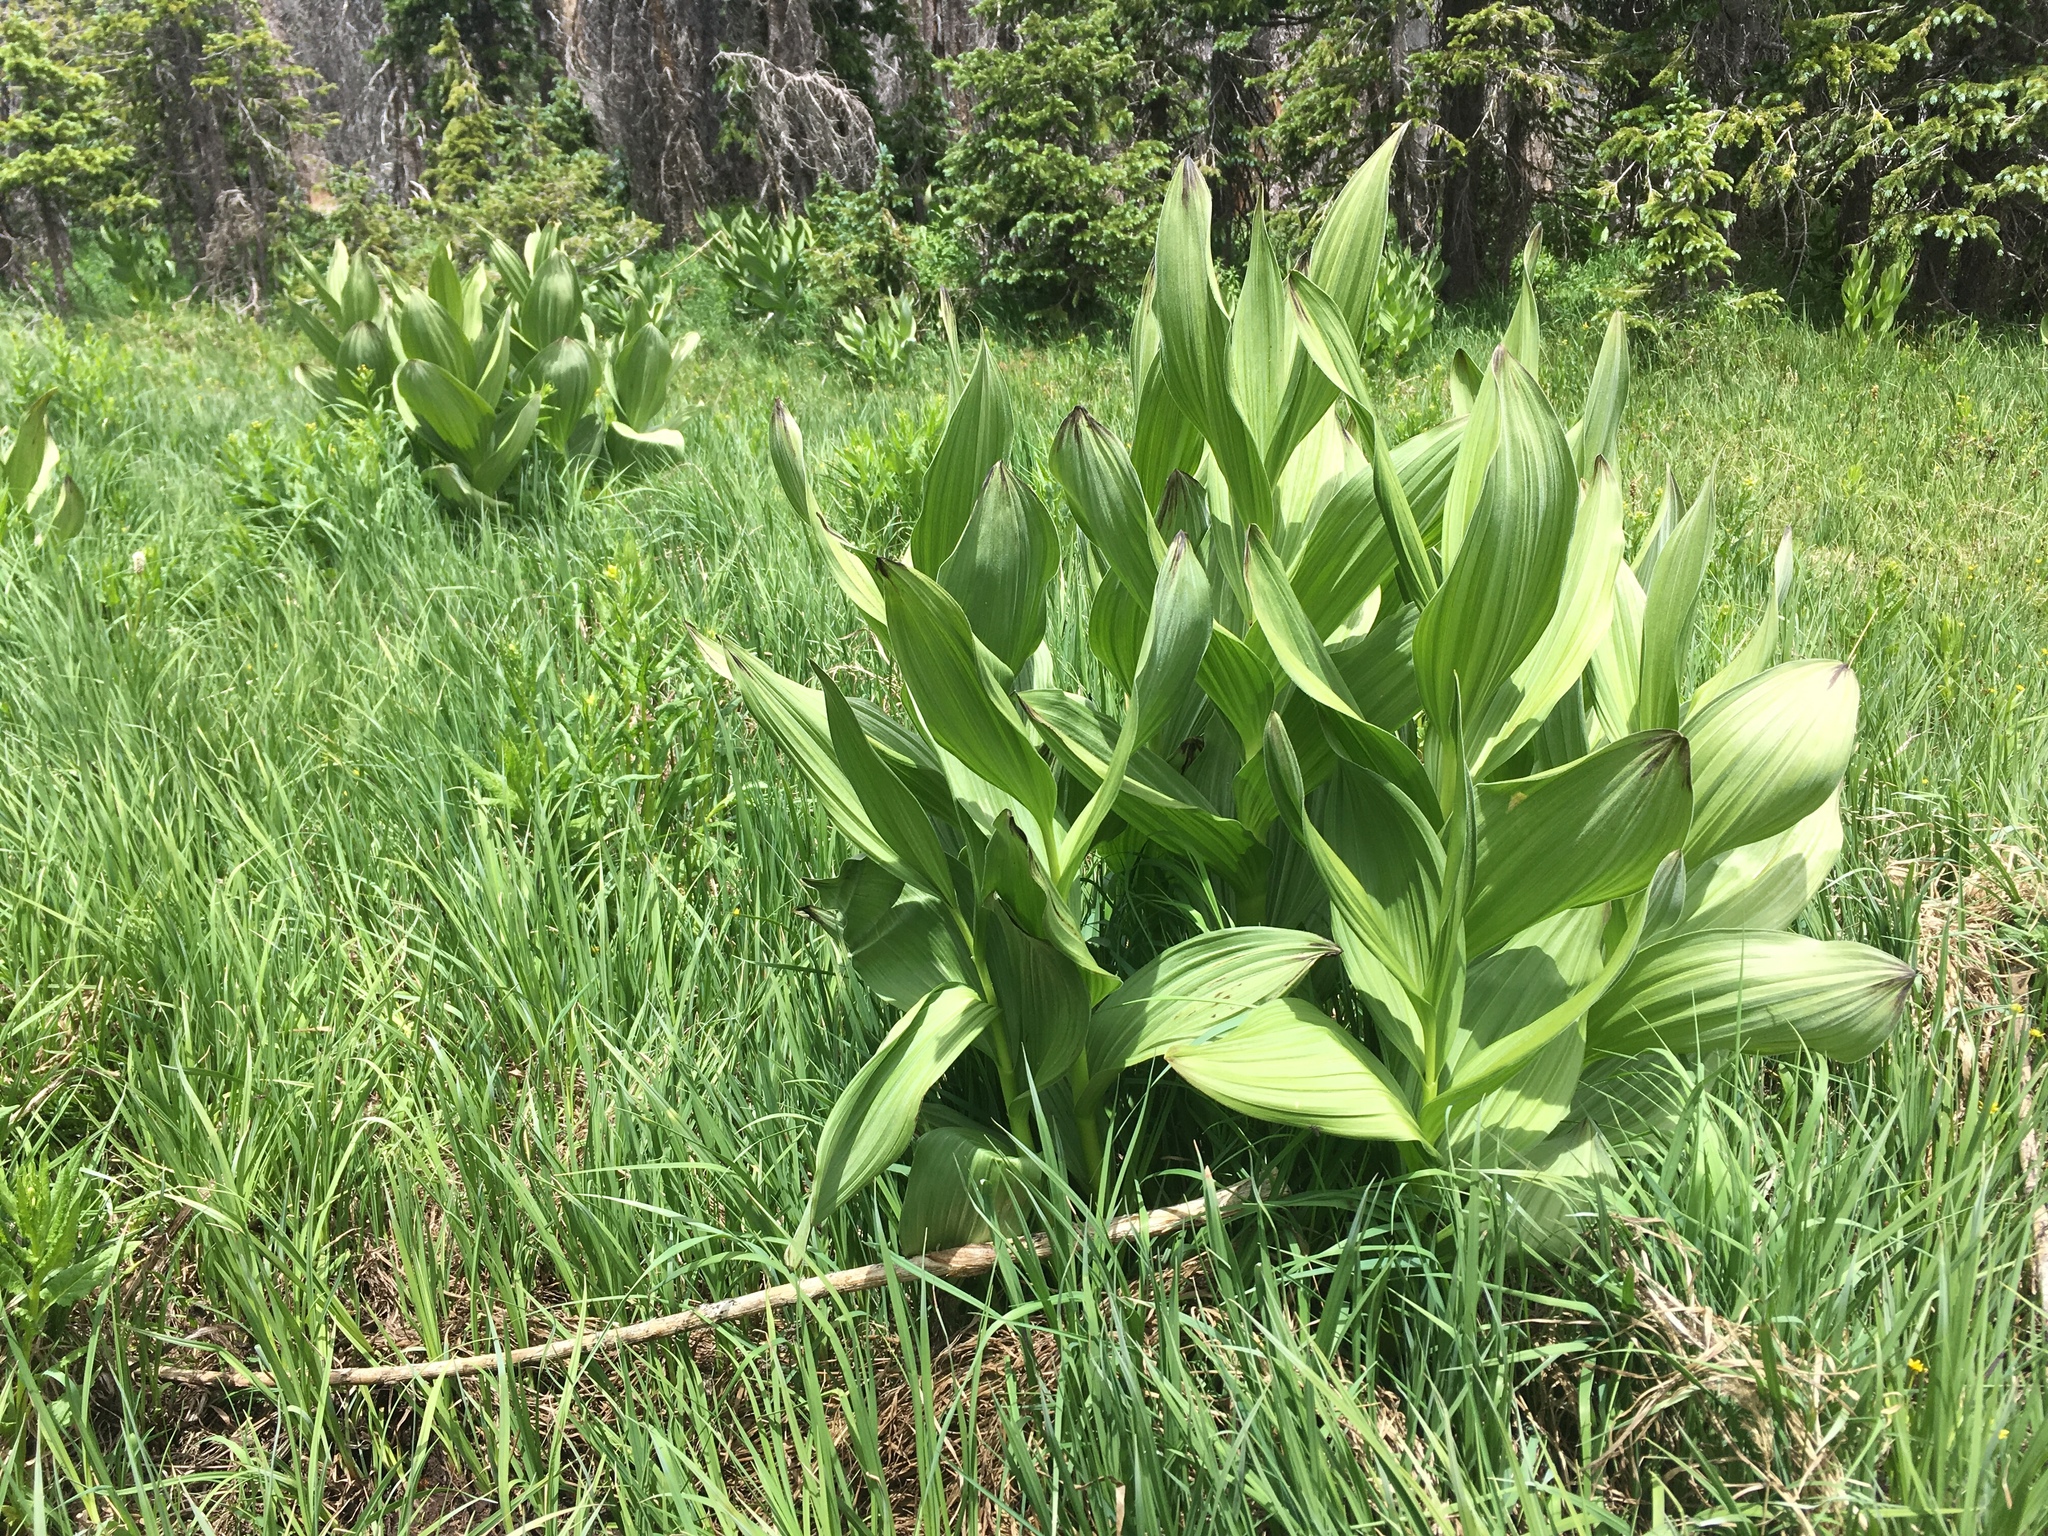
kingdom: Plantae
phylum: Tracheophyta
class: Liliopsida
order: Liliales
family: Melanthiaceae
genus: Veratrum
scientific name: Veratrum californicum
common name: California veratrum
